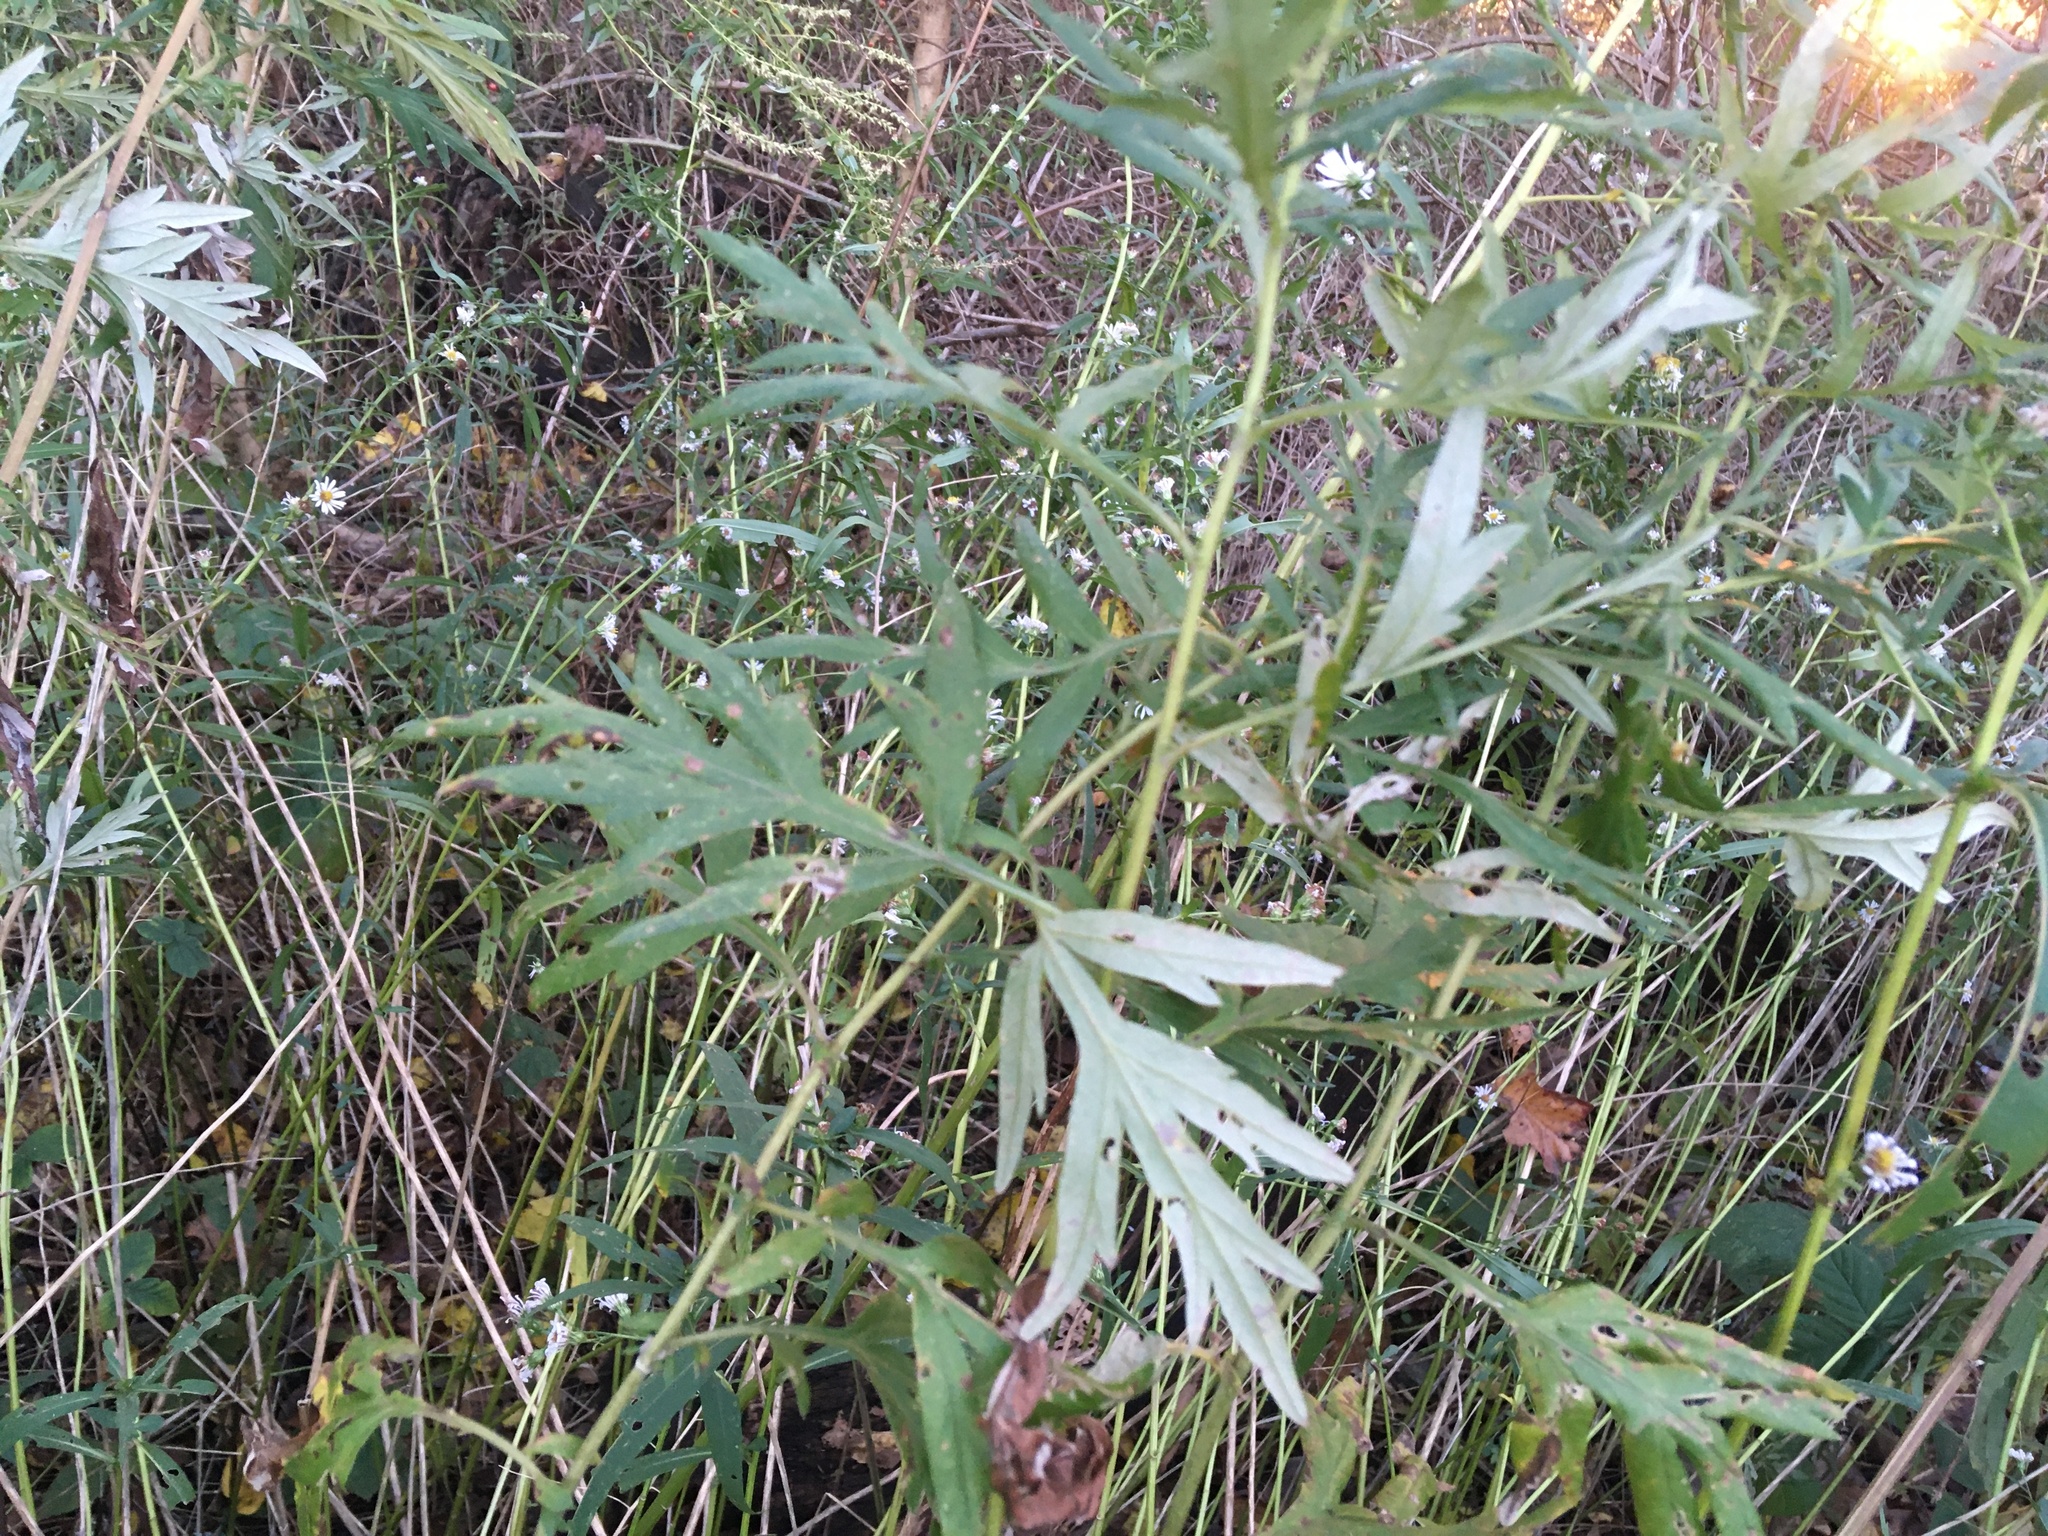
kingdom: Plantae
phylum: Tracheophyta
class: Magnoliopsida
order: Asterales
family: Asteraceae
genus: Artemisia
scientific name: Artemisia vulgaris
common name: Mugwort
